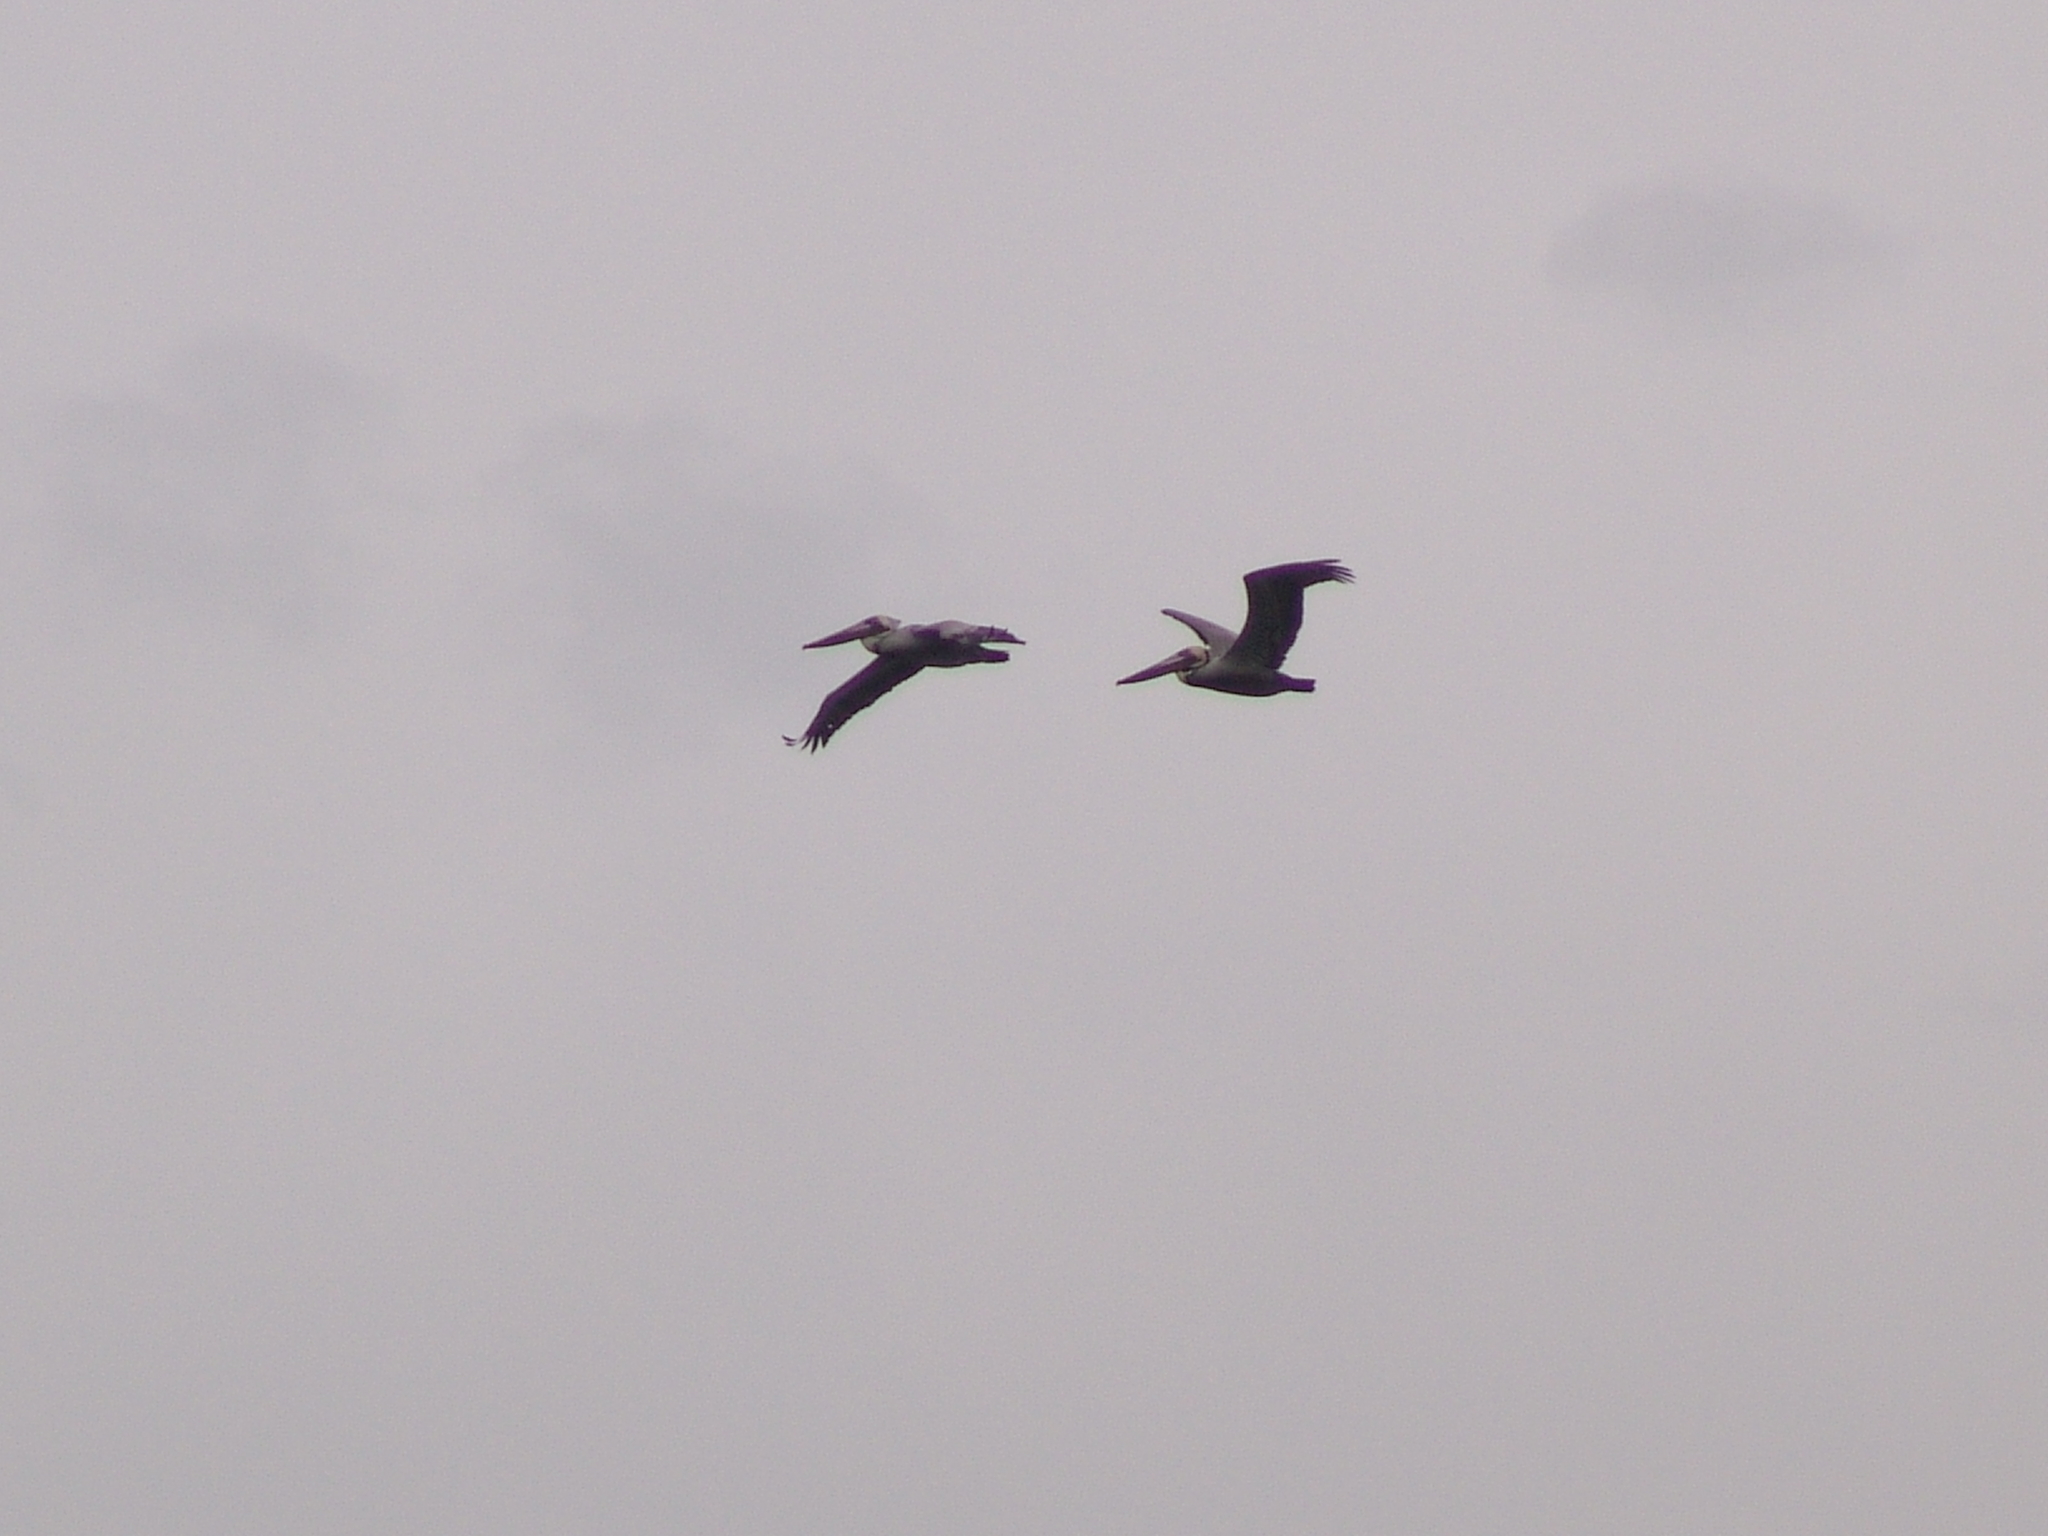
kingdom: Animalia
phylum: Chordata
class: Aves
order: Pelecaniformes
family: Pelecanidae
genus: Pelecanus
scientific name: Pelecanus occidentalis
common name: Brown pelican
